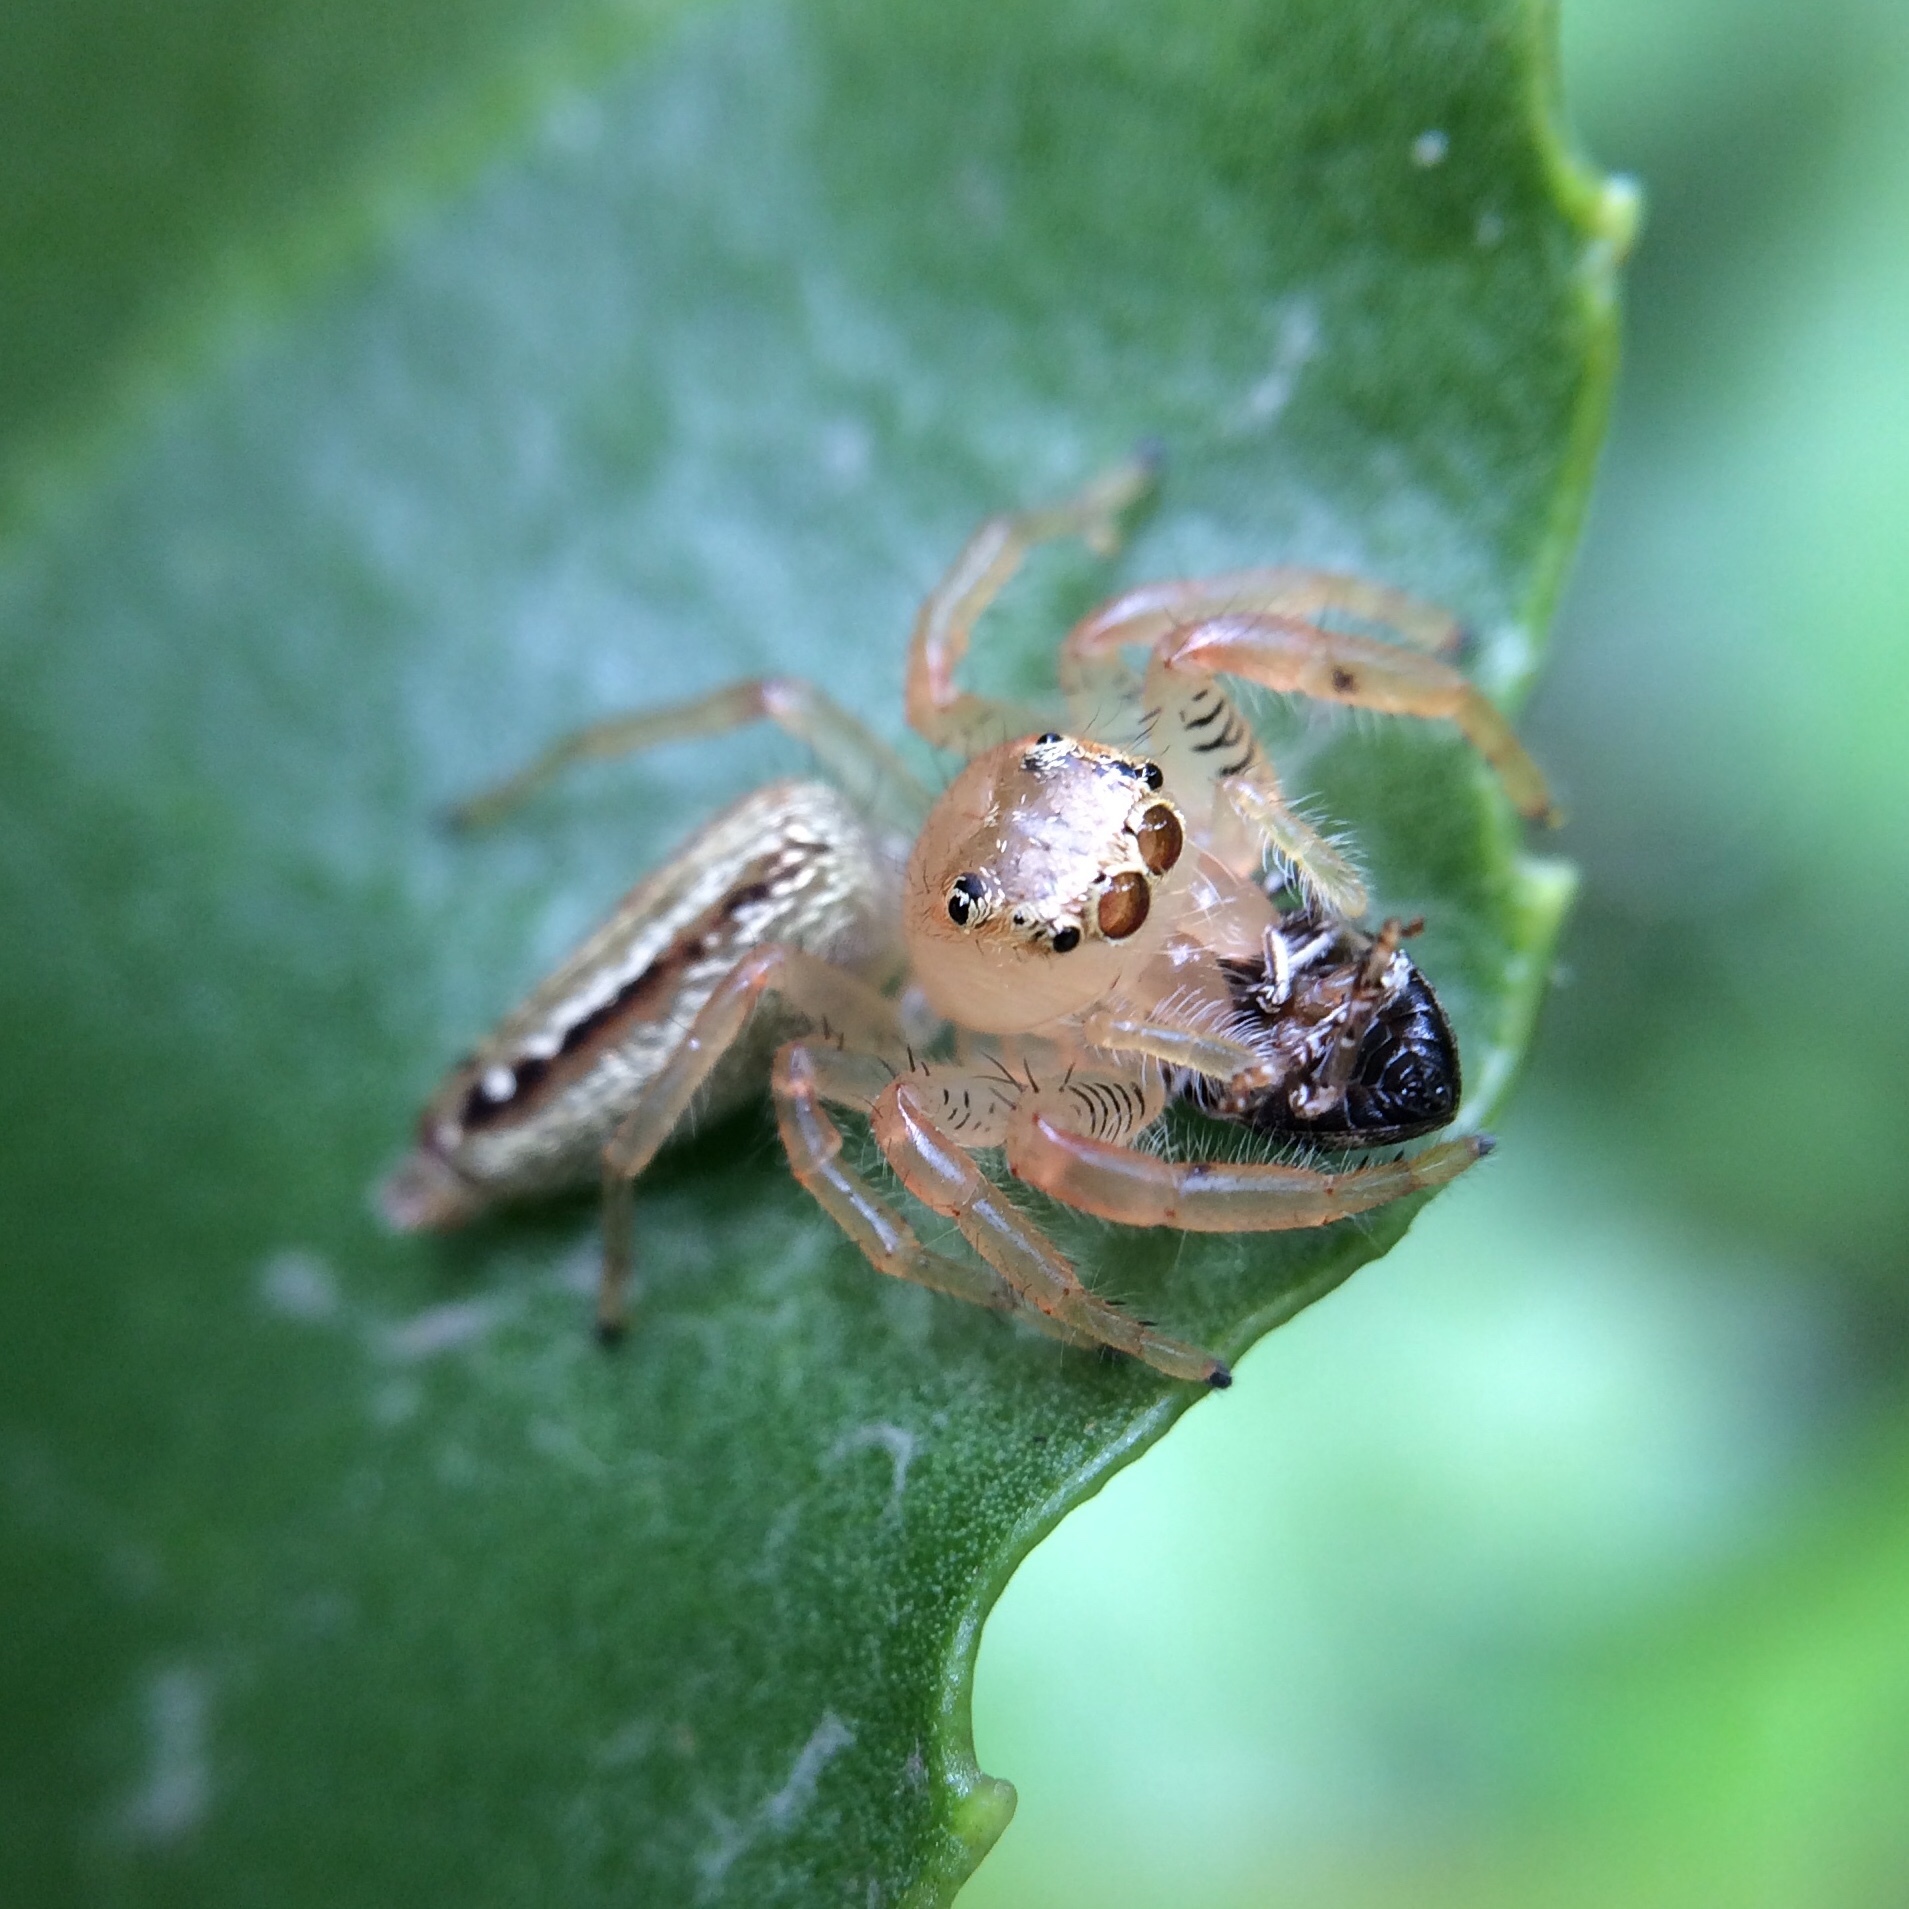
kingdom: Animalia
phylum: Arthropoda
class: Arachnida
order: Araneae
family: Salticidae
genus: Thyene
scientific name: Thyene ogdeni
